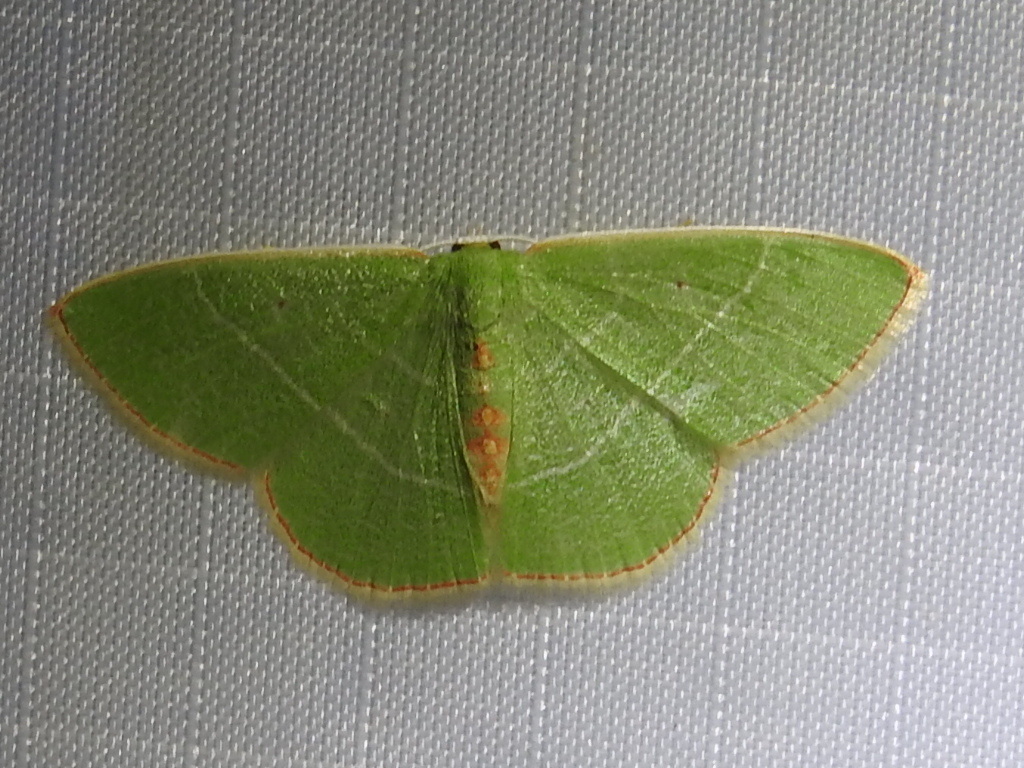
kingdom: Animalia
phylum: Arthropoda
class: Insecta
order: Lepidoptera
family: Geometridae
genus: Nemoria
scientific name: Nemoria bifilata
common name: White-barred emerald moth
